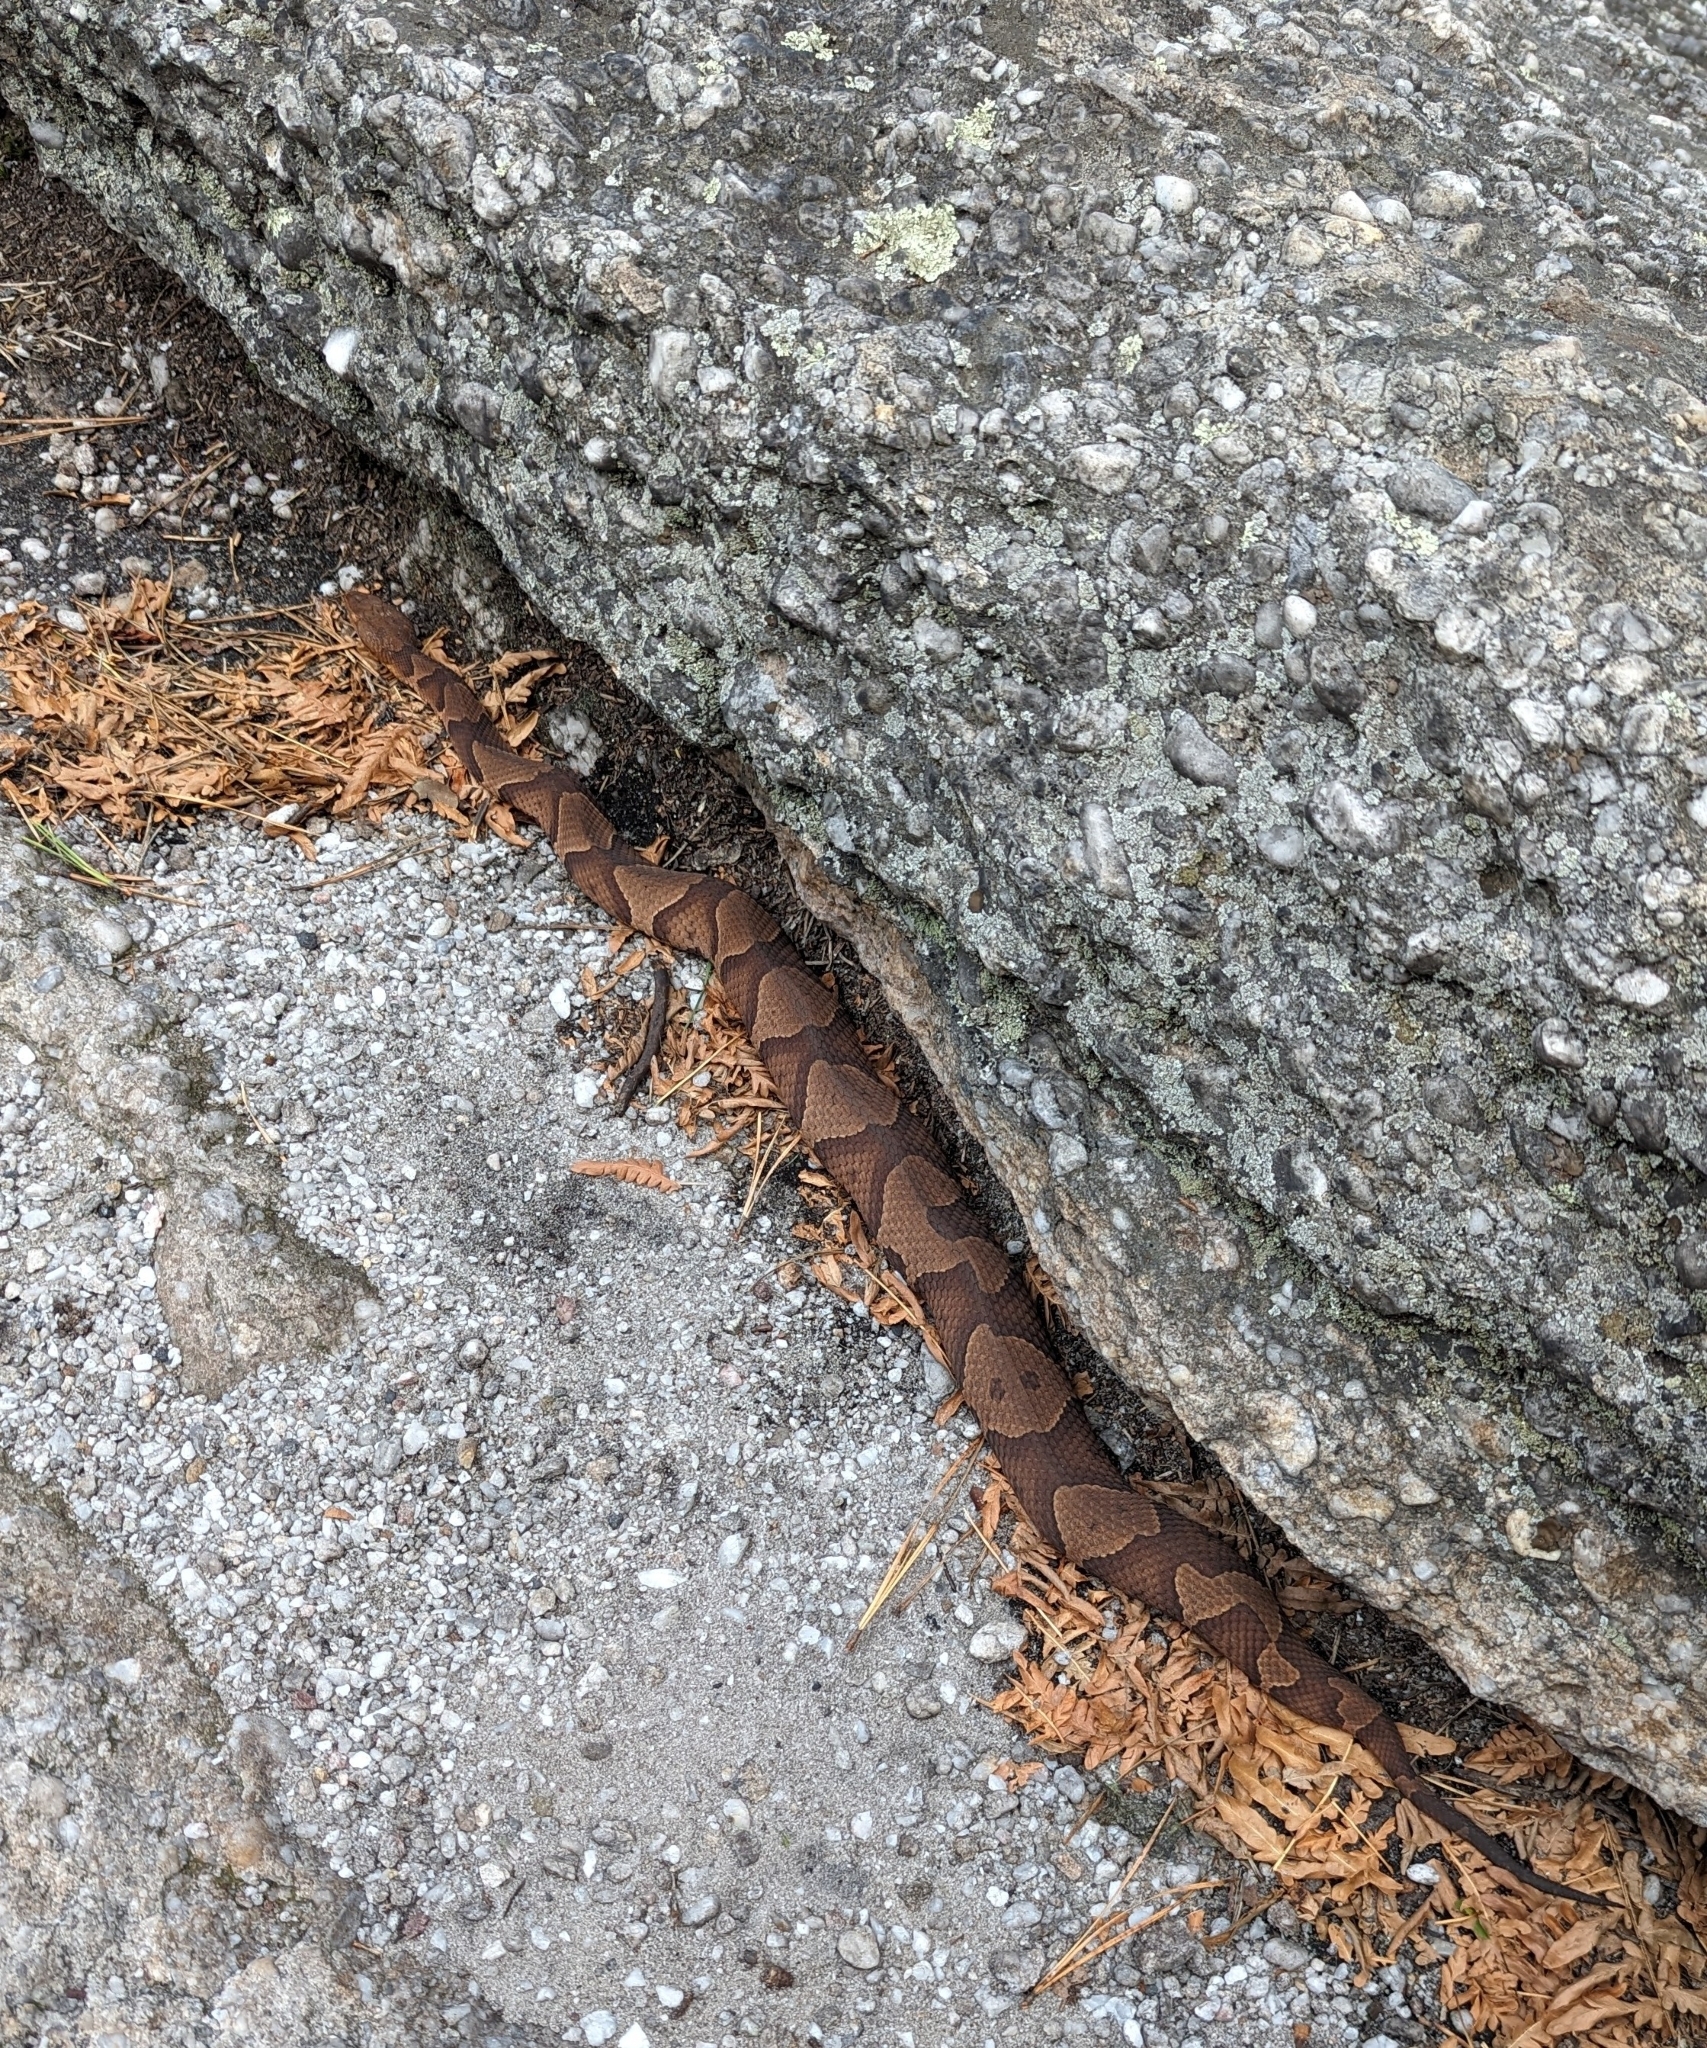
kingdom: Animalia
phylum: Chordata
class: Squamata
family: Viperidae
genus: Agkistrodon
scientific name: Agkistrodon contortrix
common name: Northern copperhead
